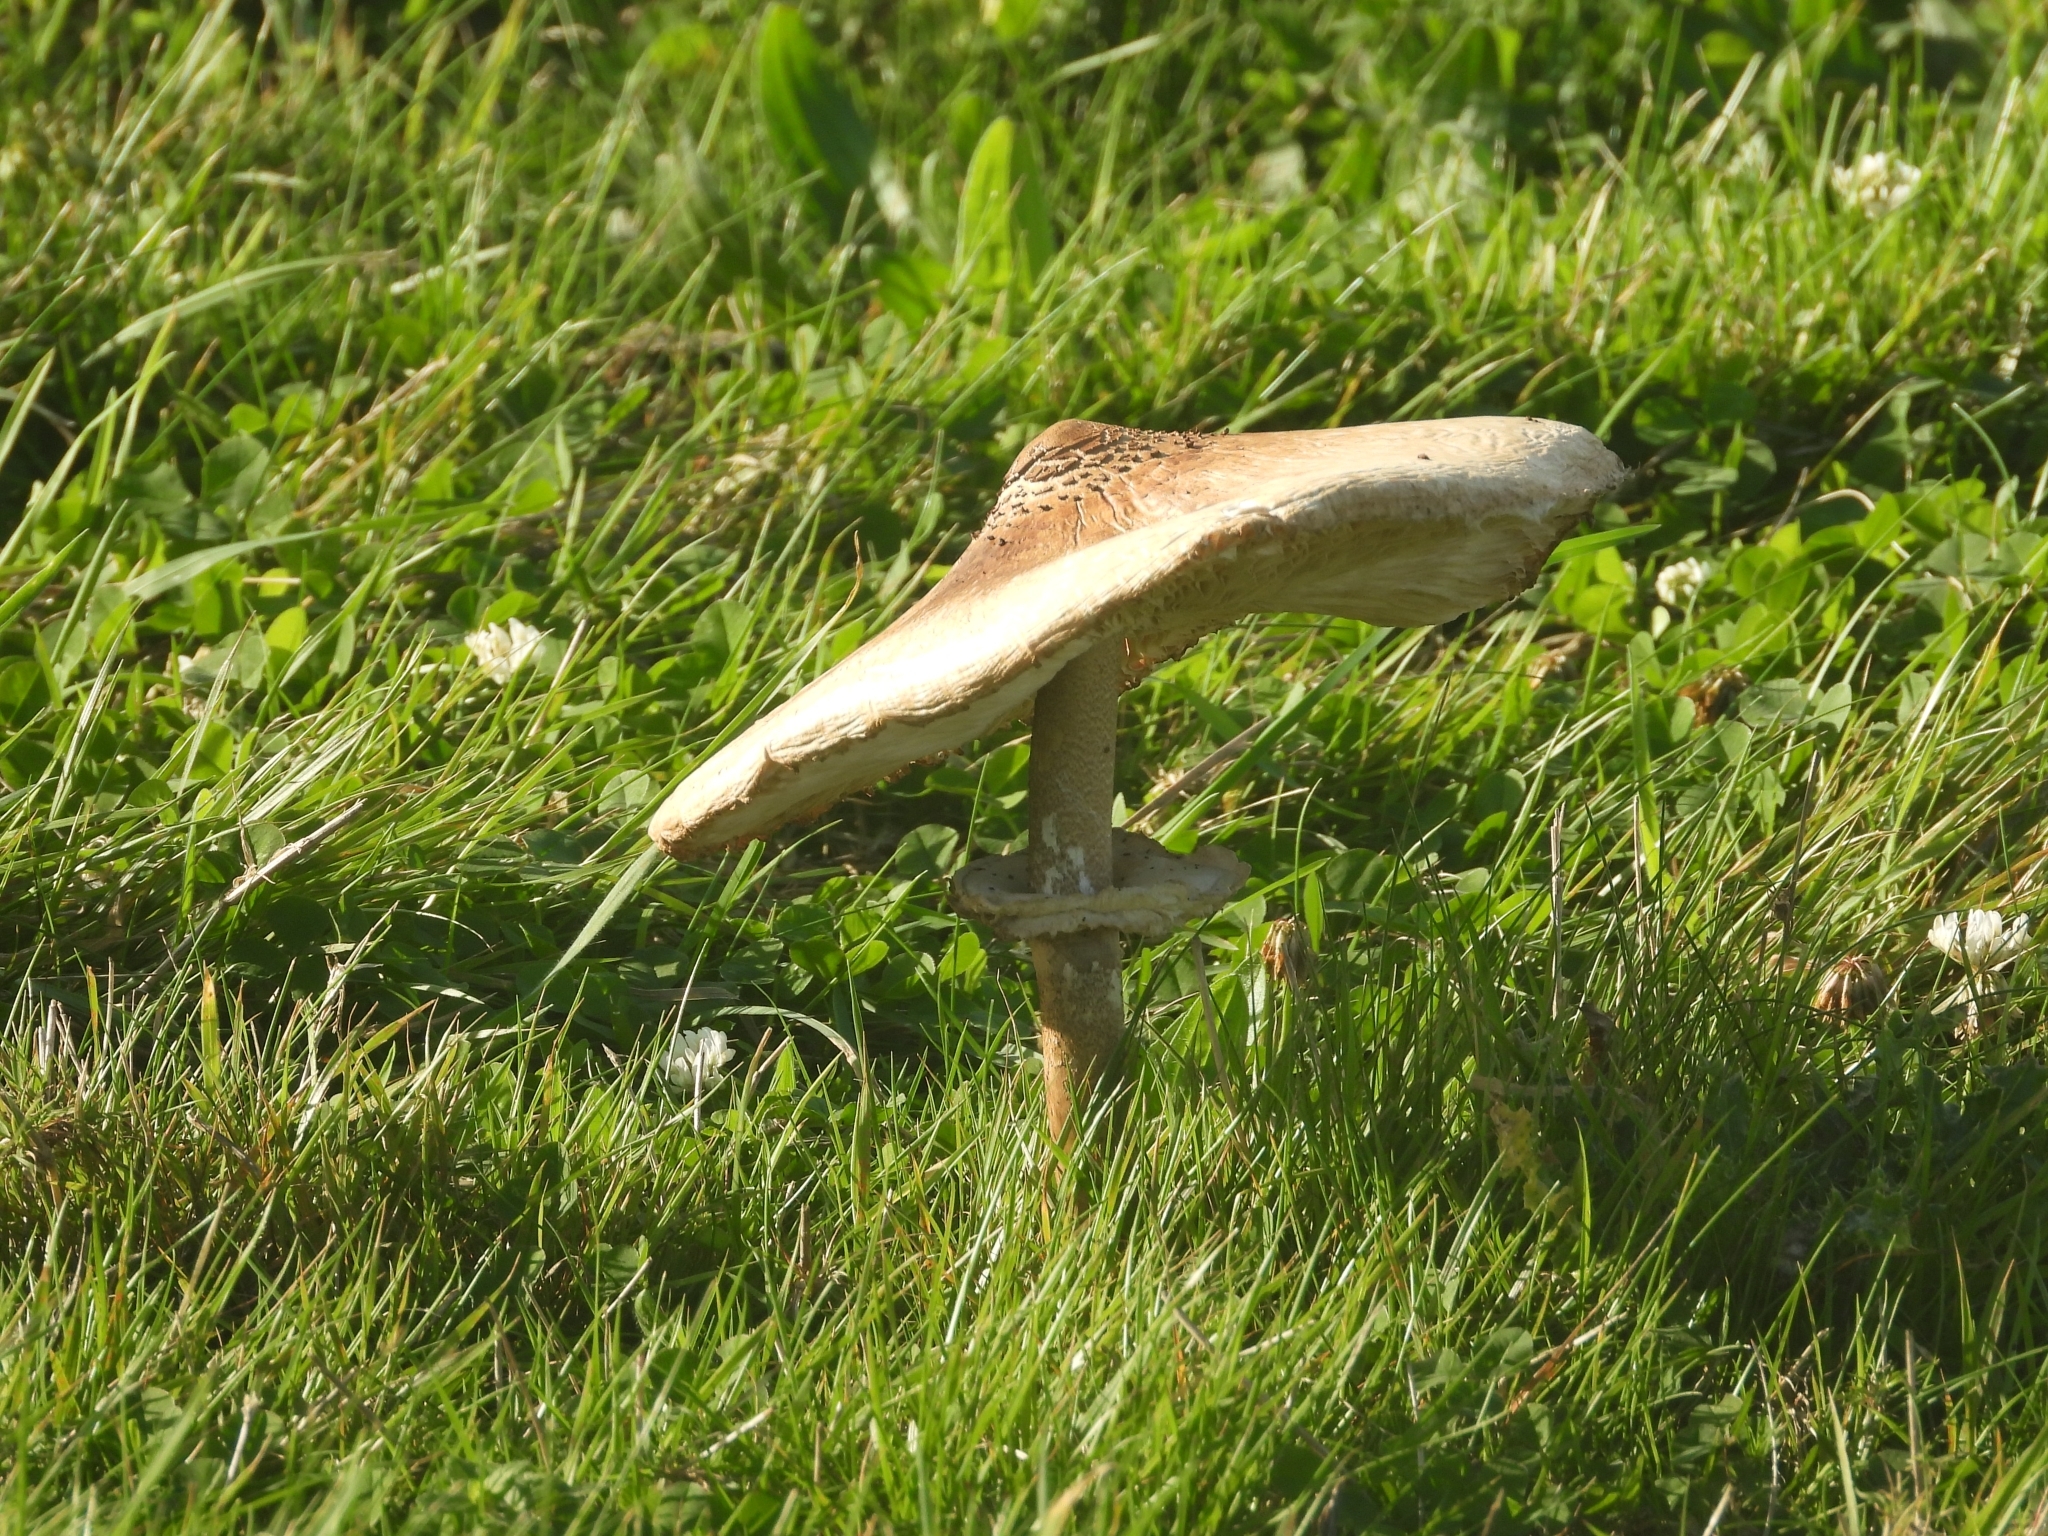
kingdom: Fungi
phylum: Basidiomycota
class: Agaricomycetes
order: Agaricales
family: Agaricaceae
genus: Macrolepiota
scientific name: Macrolepiota procera
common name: Parasol
